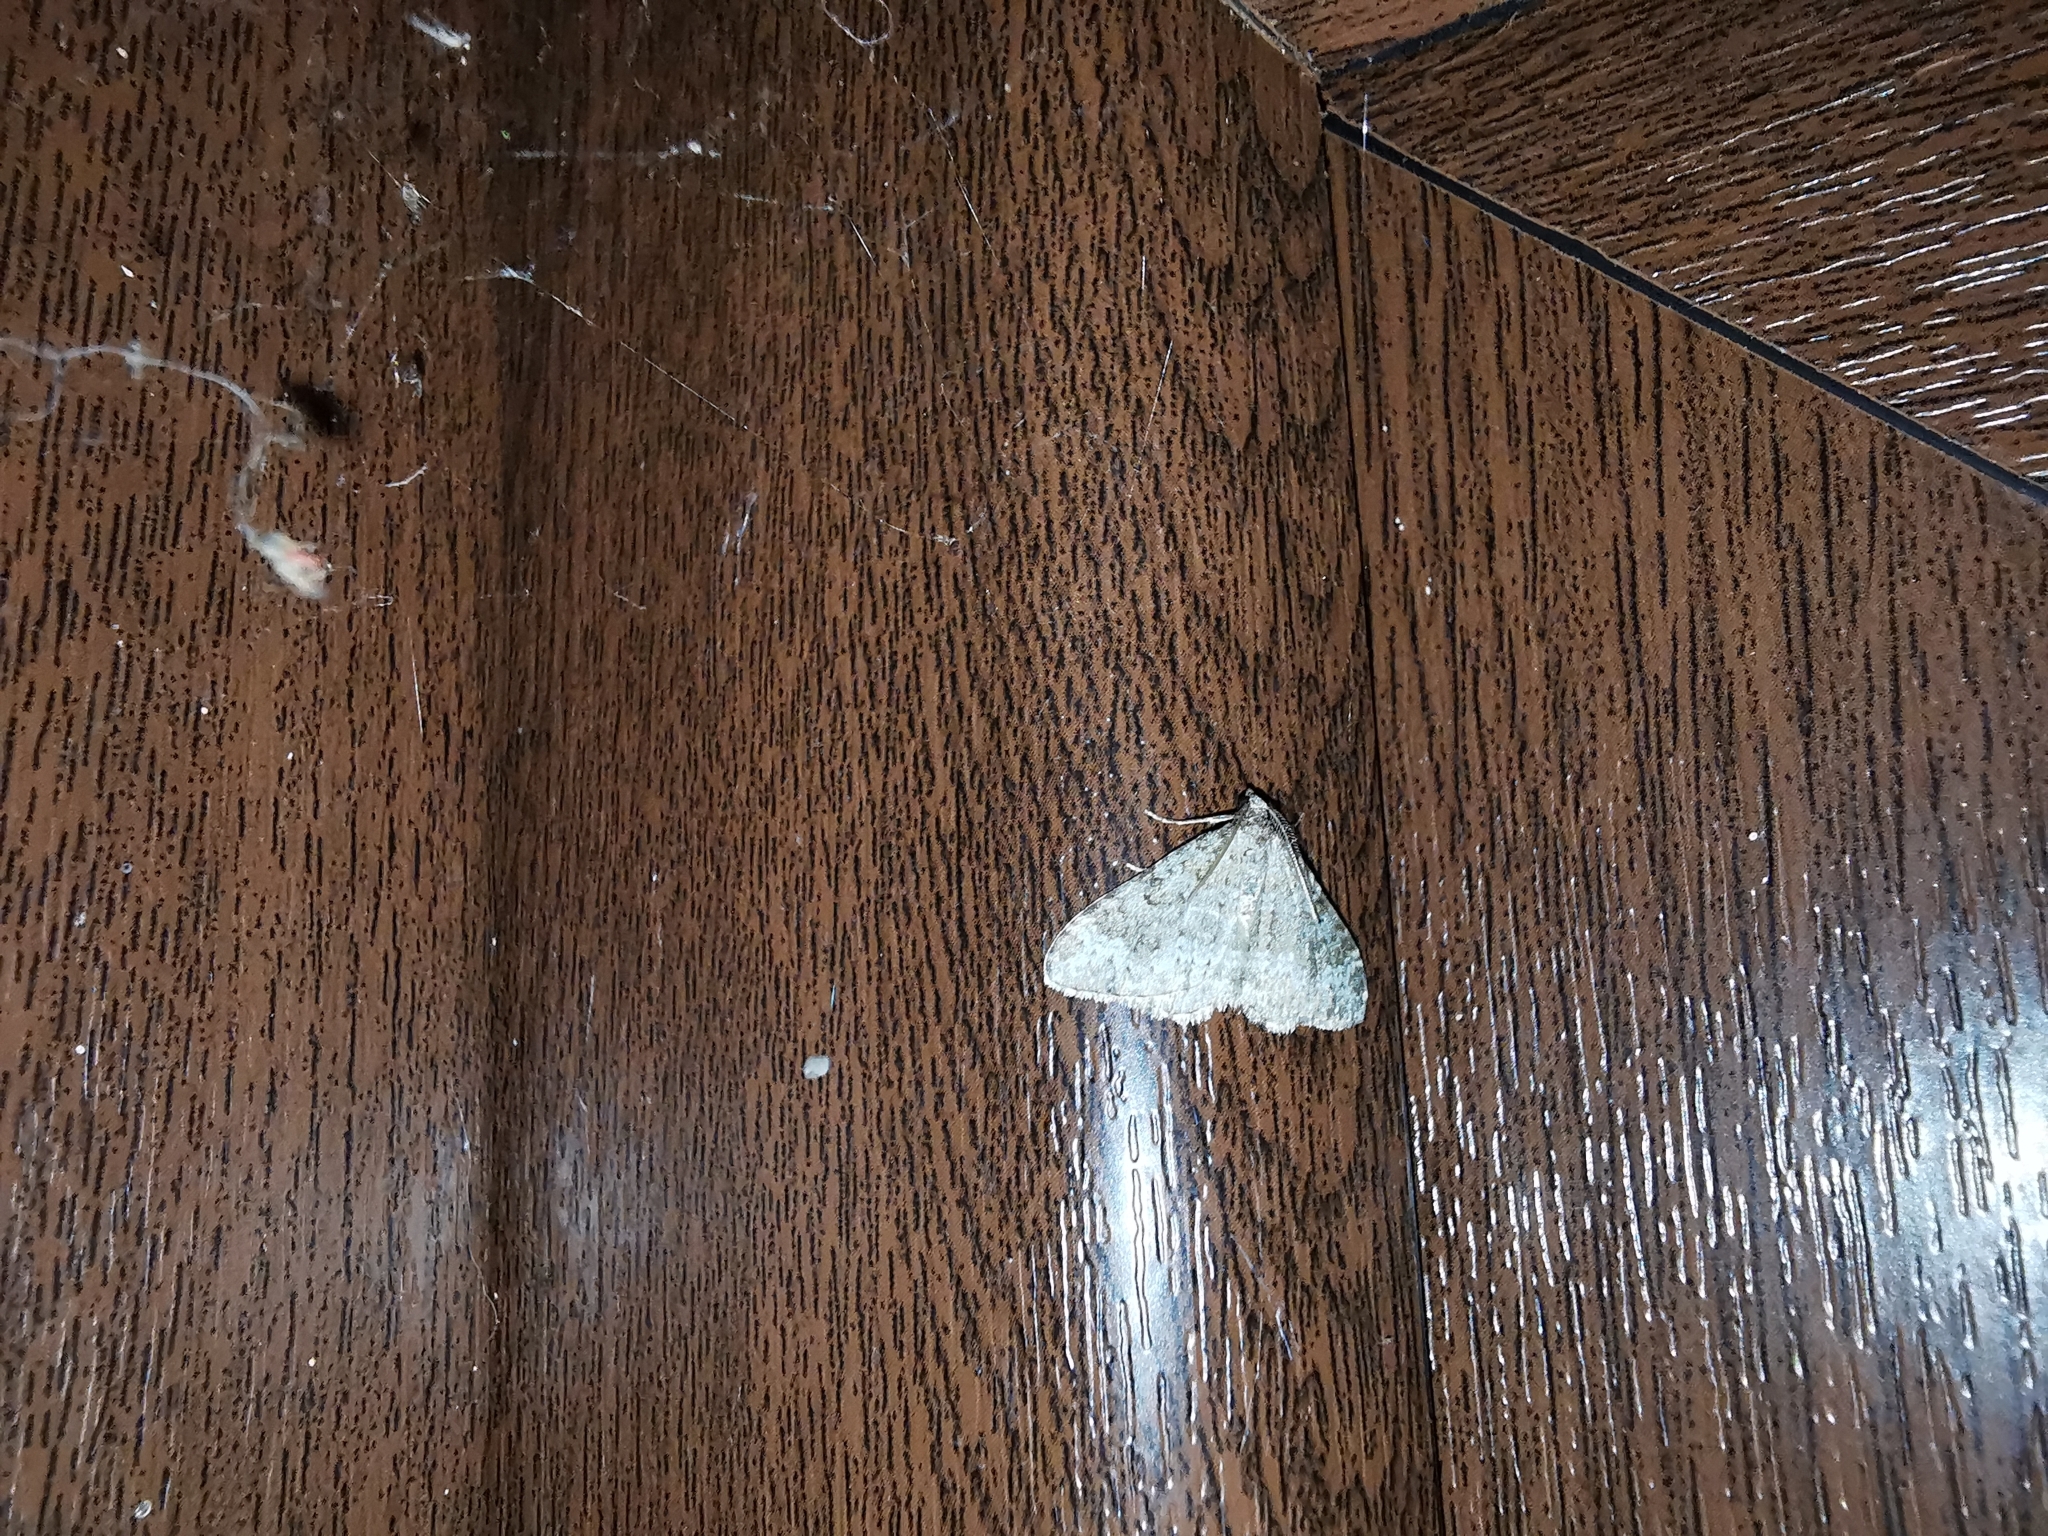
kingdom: Animalia
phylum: Arthropoda
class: Insecta
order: Lepidoptera
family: Geometridae
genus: Nebula
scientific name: Nebula salicata
